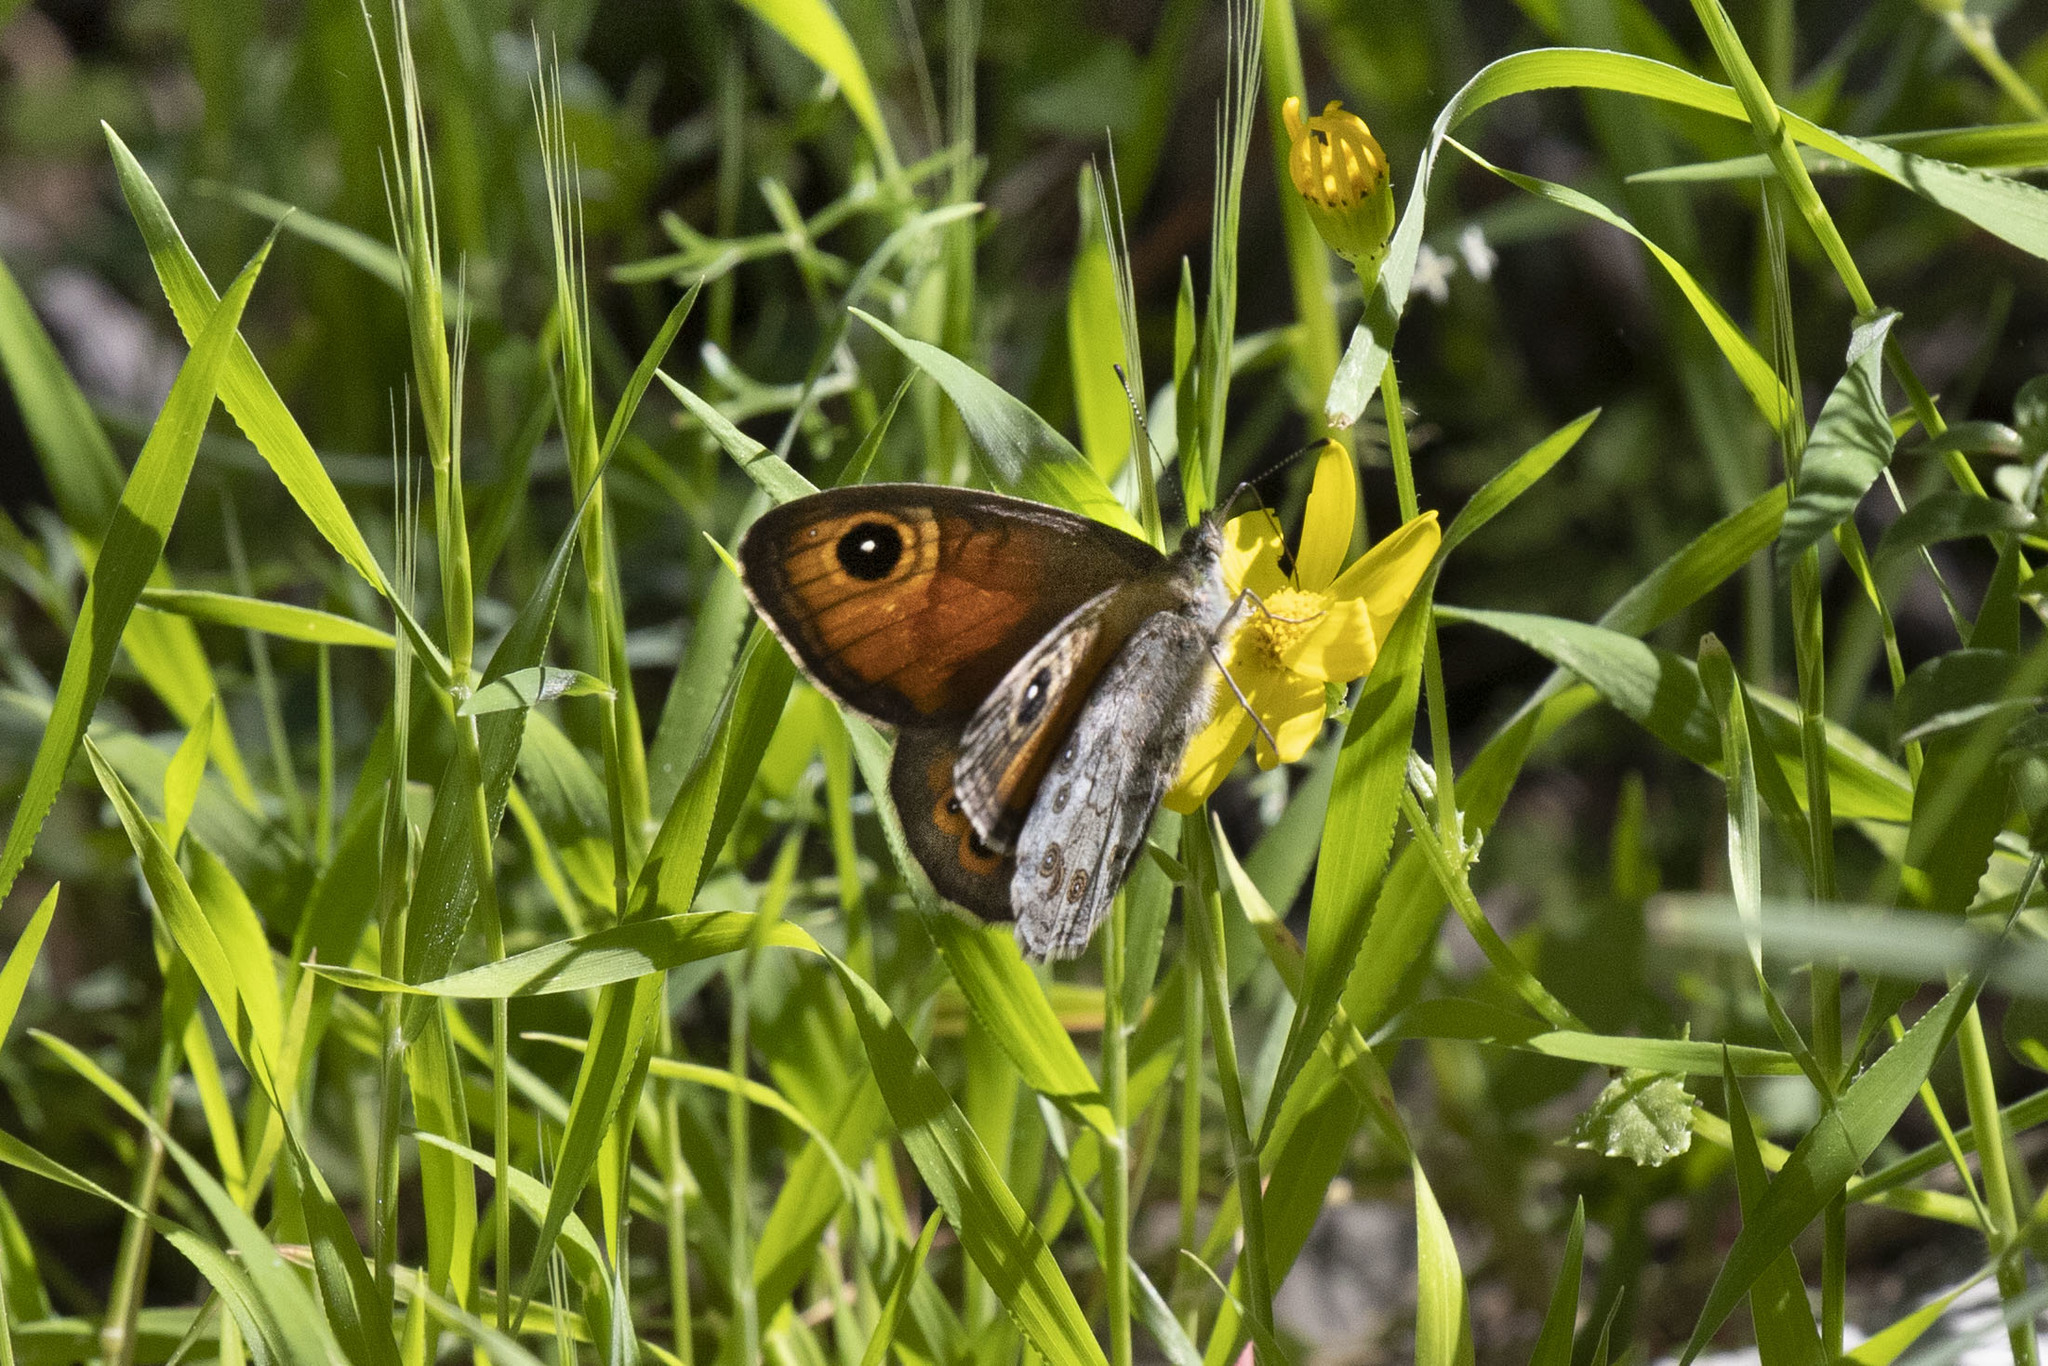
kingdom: Animalia
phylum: Arthropoda
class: Insecta
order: Lepidoptera
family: Nymphalidae
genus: Pararge
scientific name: Pararge Lasiommata maera
